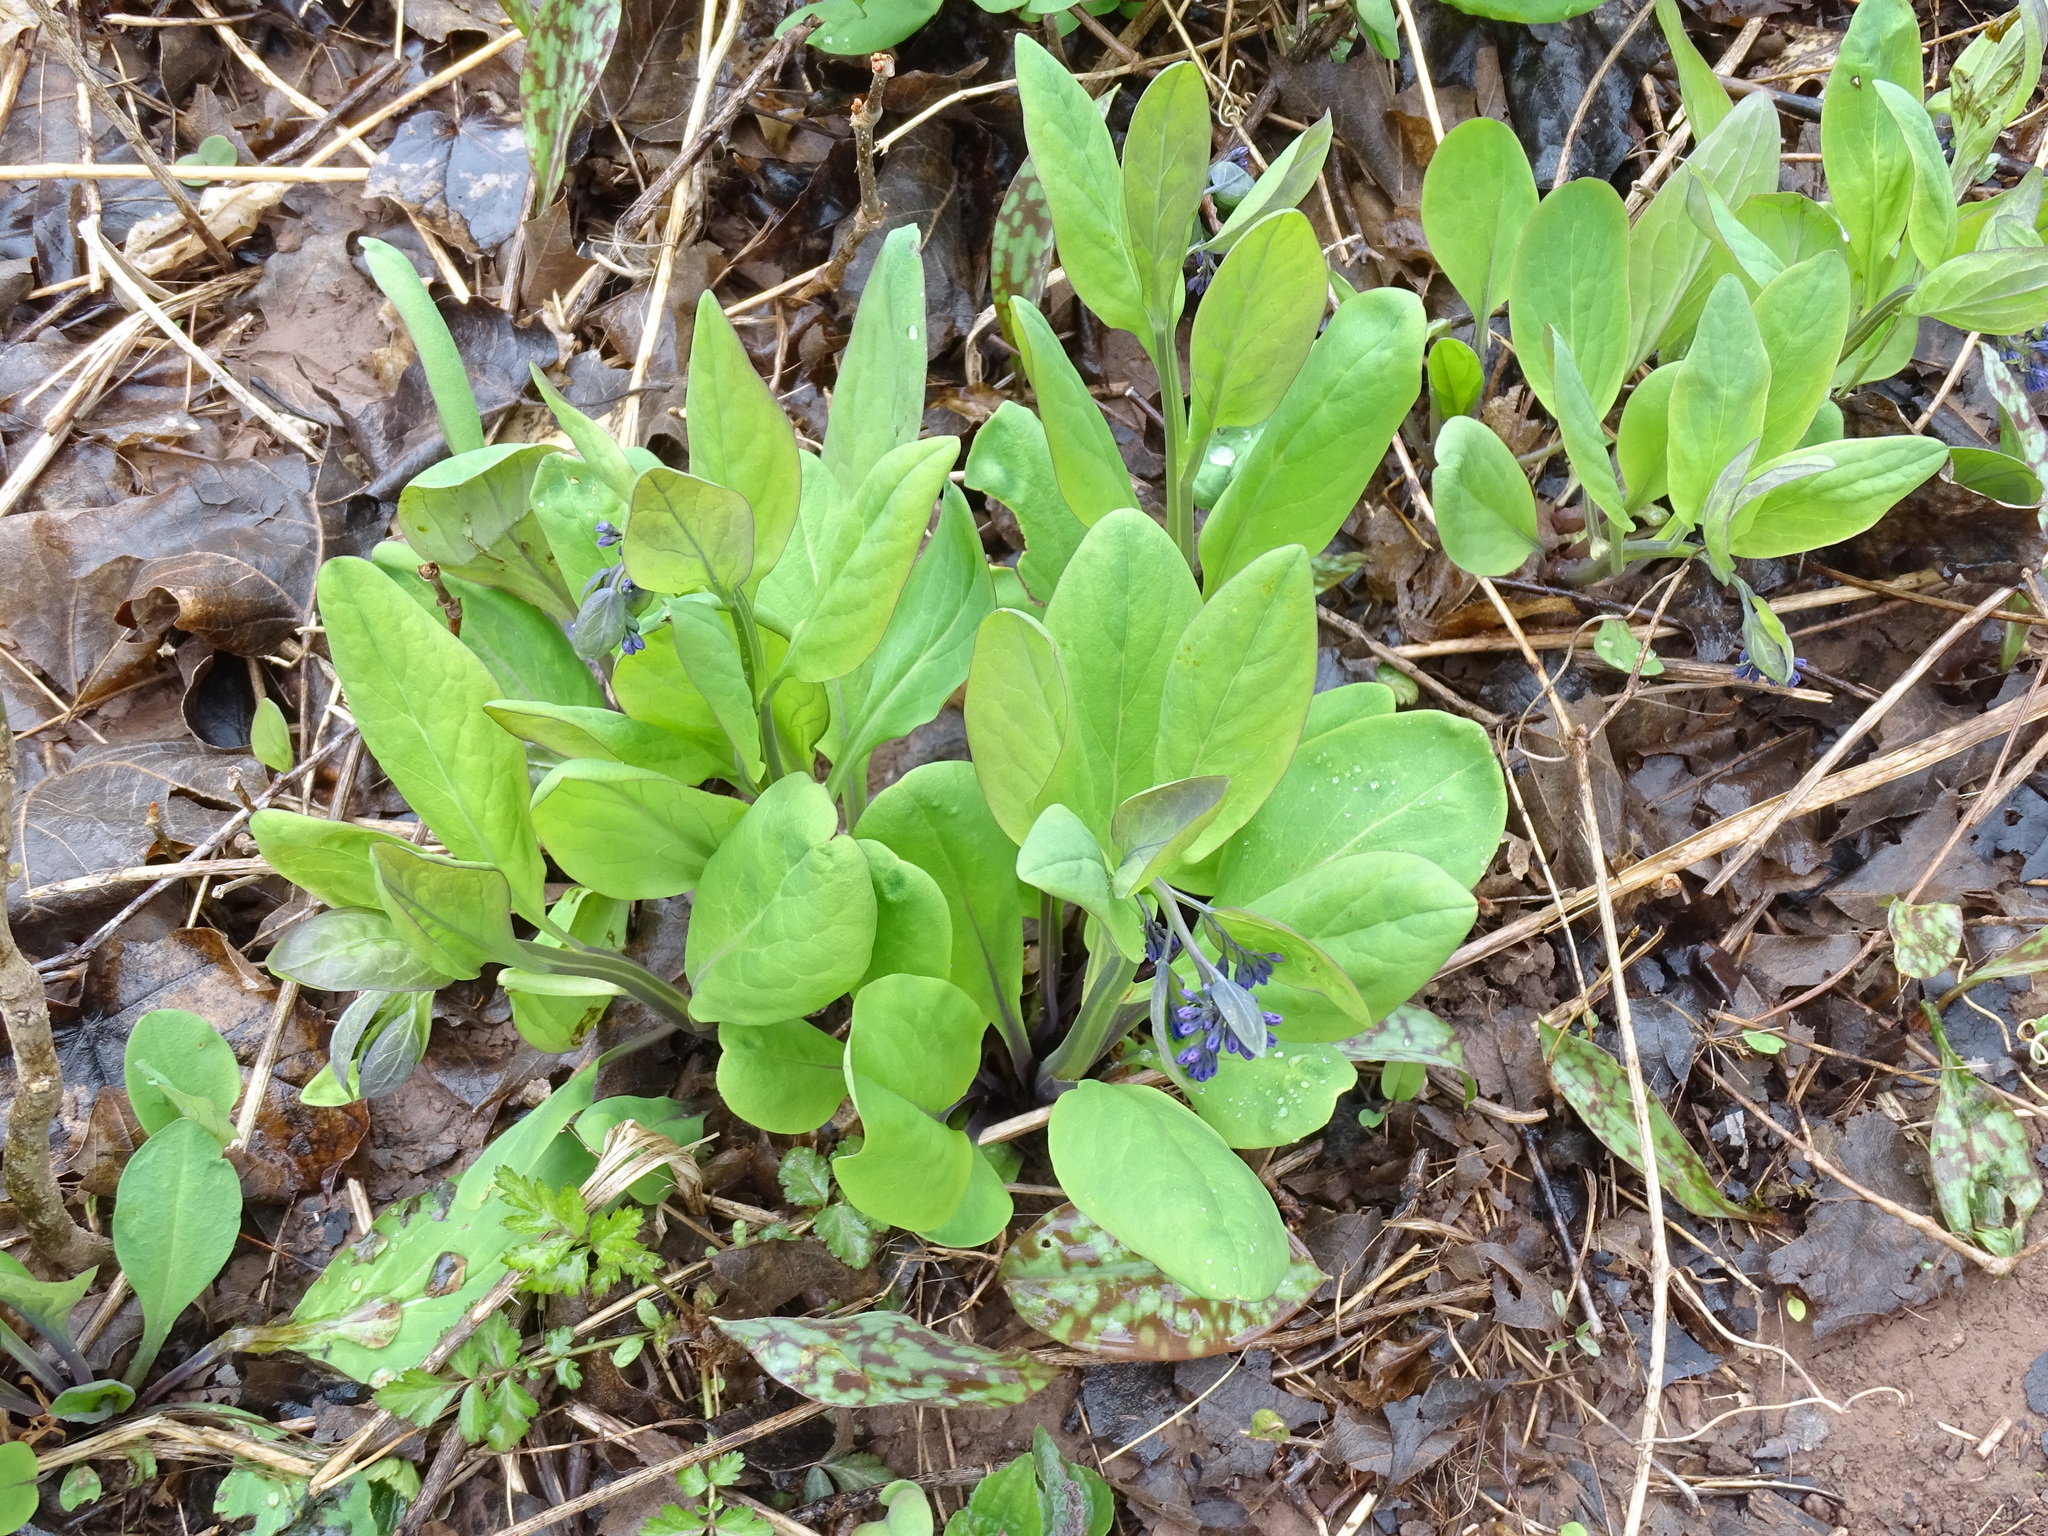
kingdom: Plantae
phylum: Tracheophyta
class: Magnoliopsida
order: Boraginales
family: Boraginaceae
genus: Mertensia
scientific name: Mertensia virginica
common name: Virginia bluebells
